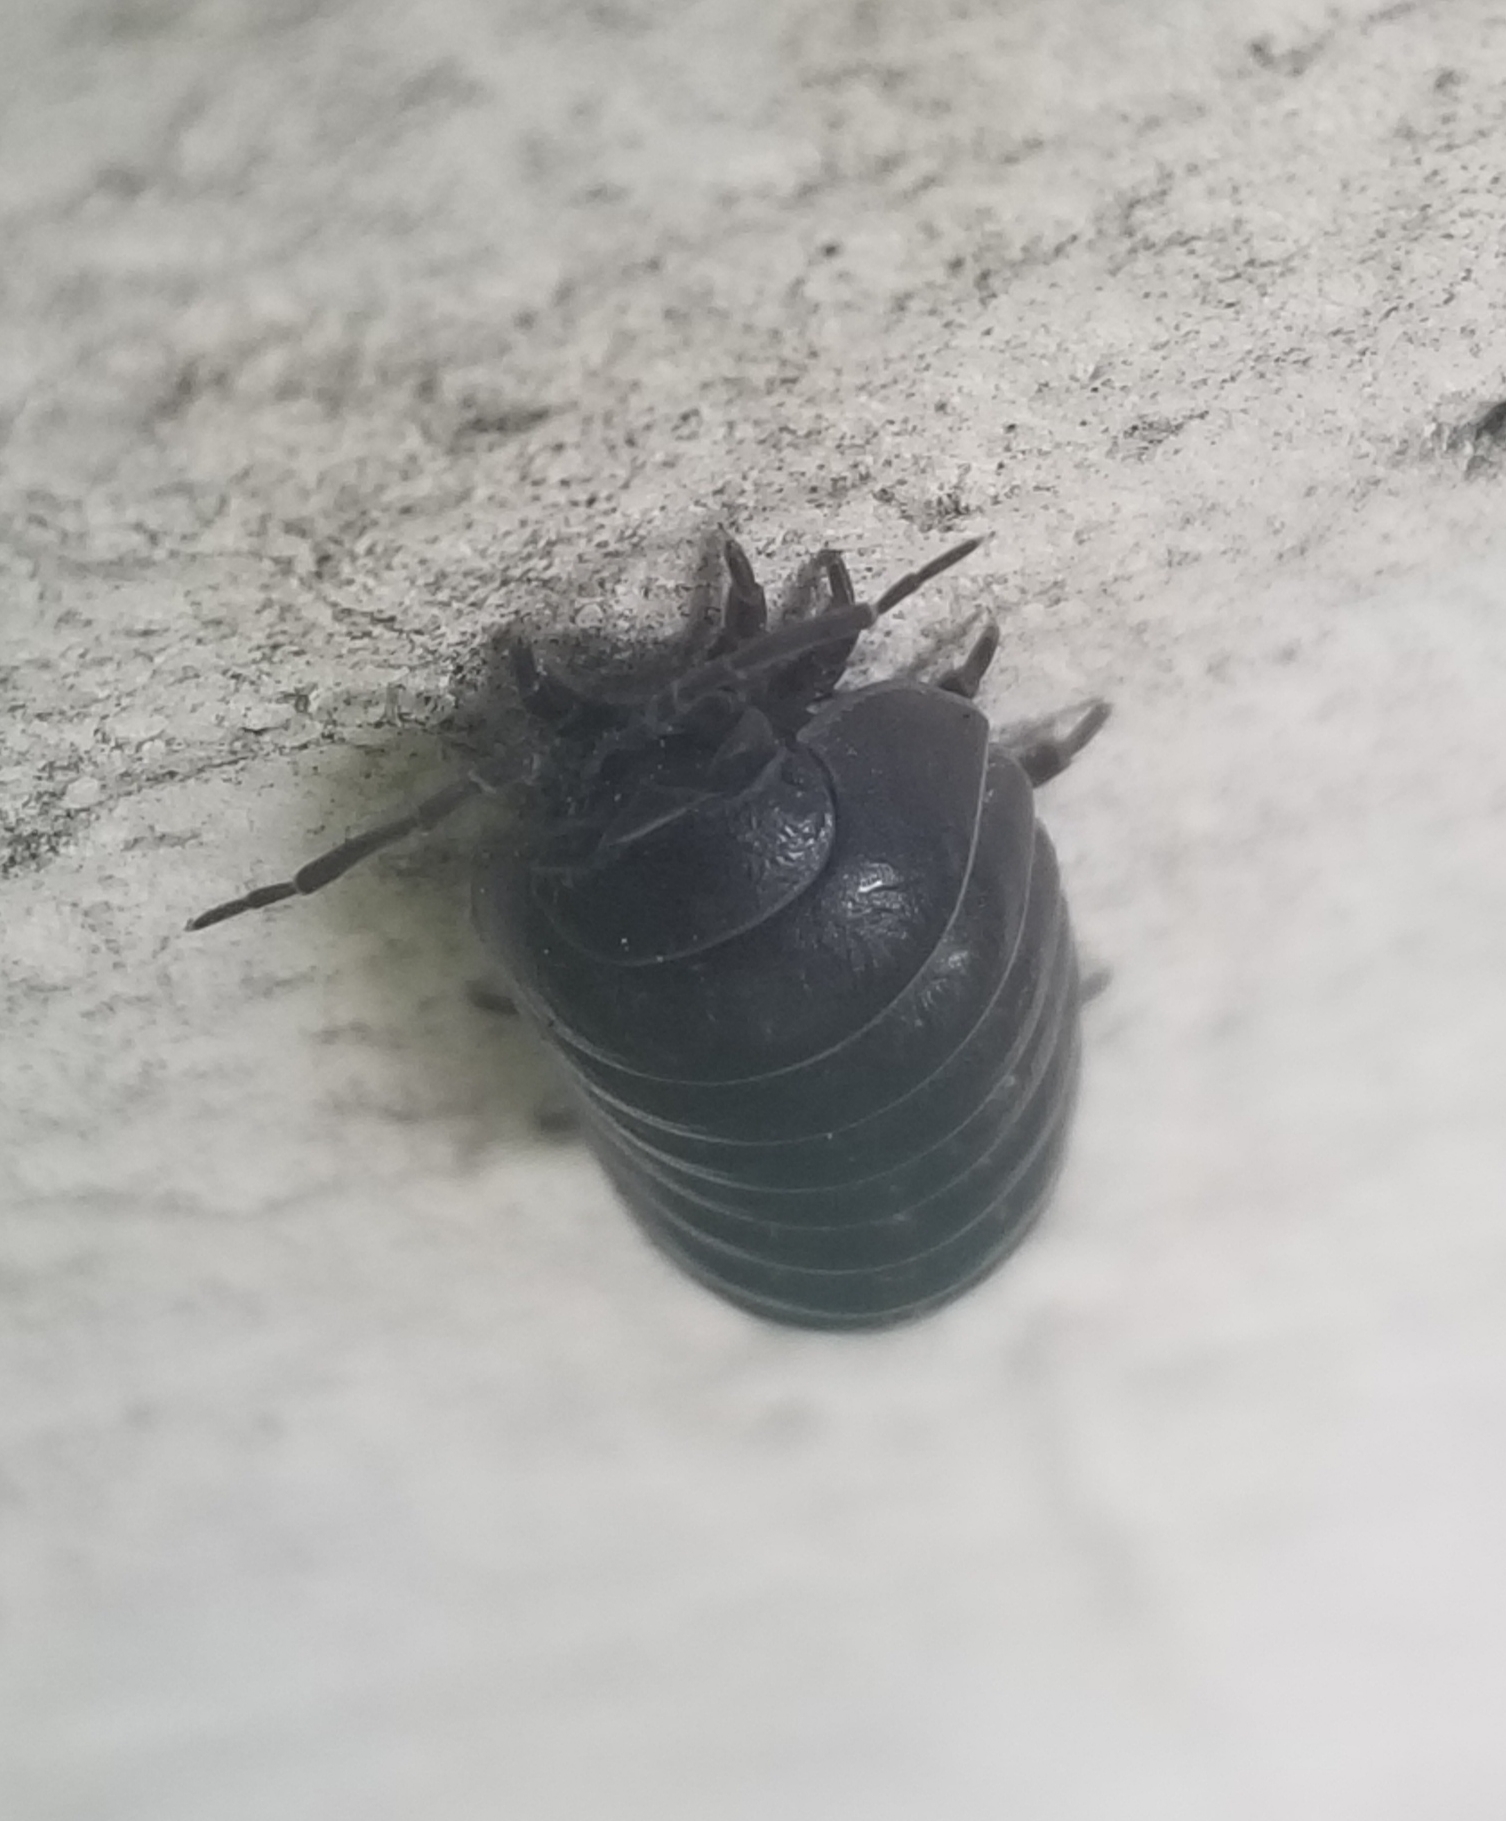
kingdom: Animalia
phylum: Arthropoda
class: Malacostraca
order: Isopoda
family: Armadillidiidae
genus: Armadillidium
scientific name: Armadillidium vulgare
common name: Common pill woodlouse
